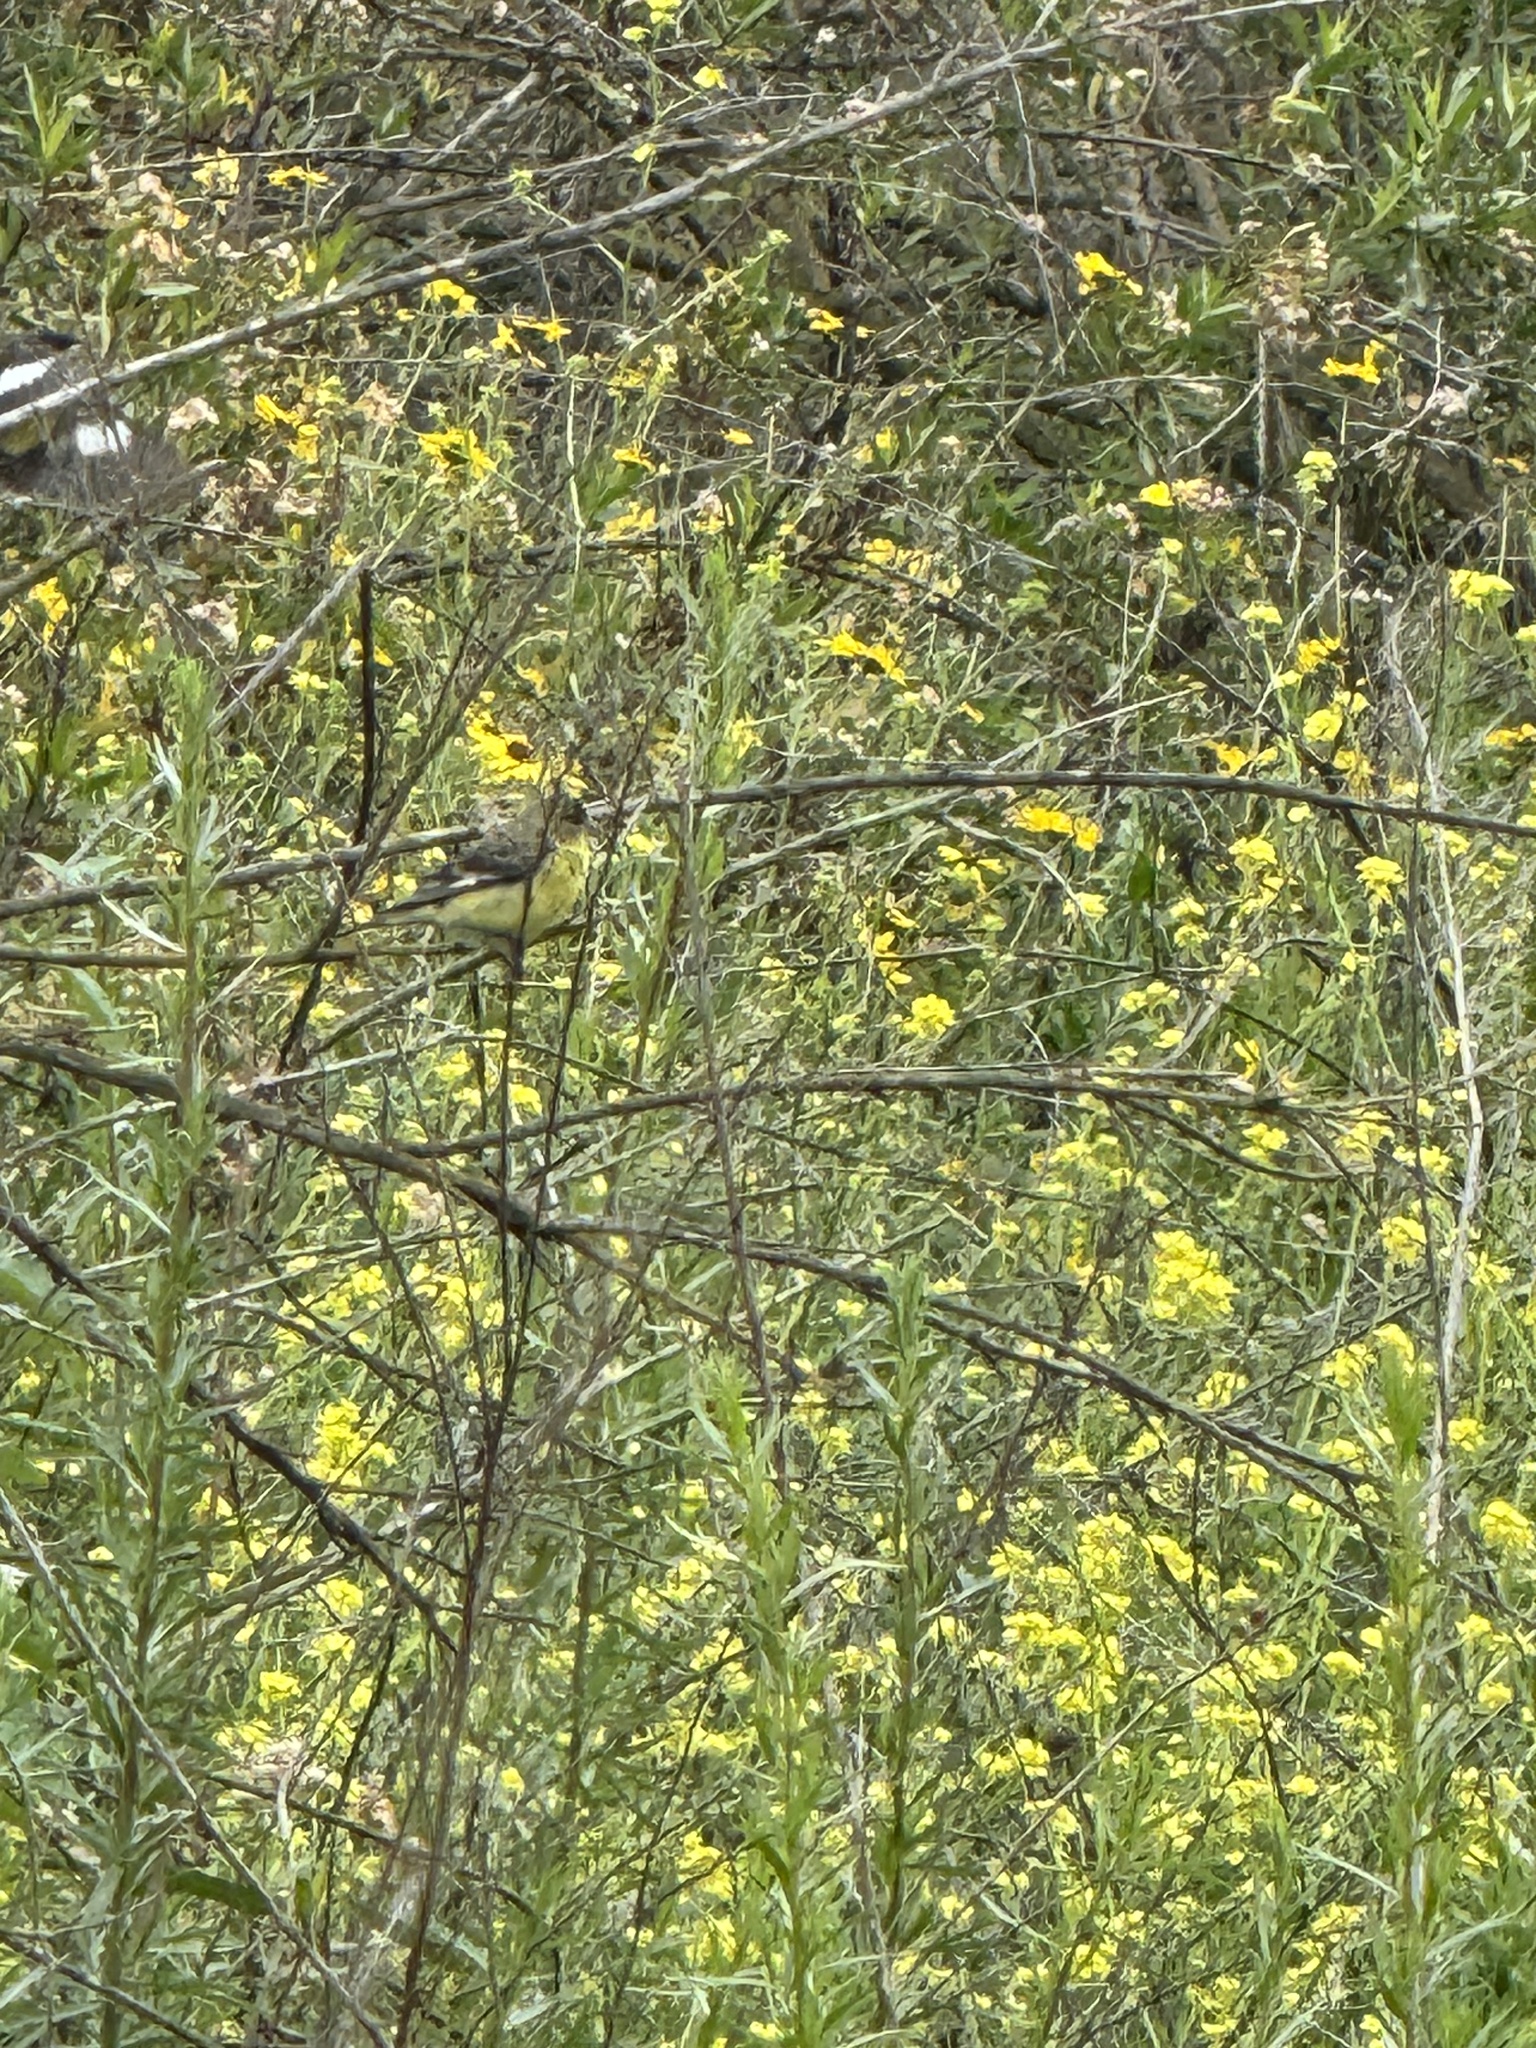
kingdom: Animalia
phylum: Chordata
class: Aves
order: Passeriformes
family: Fringillidae
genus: Spinus
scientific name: Spinus psaltria
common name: Lesser goldfinch
